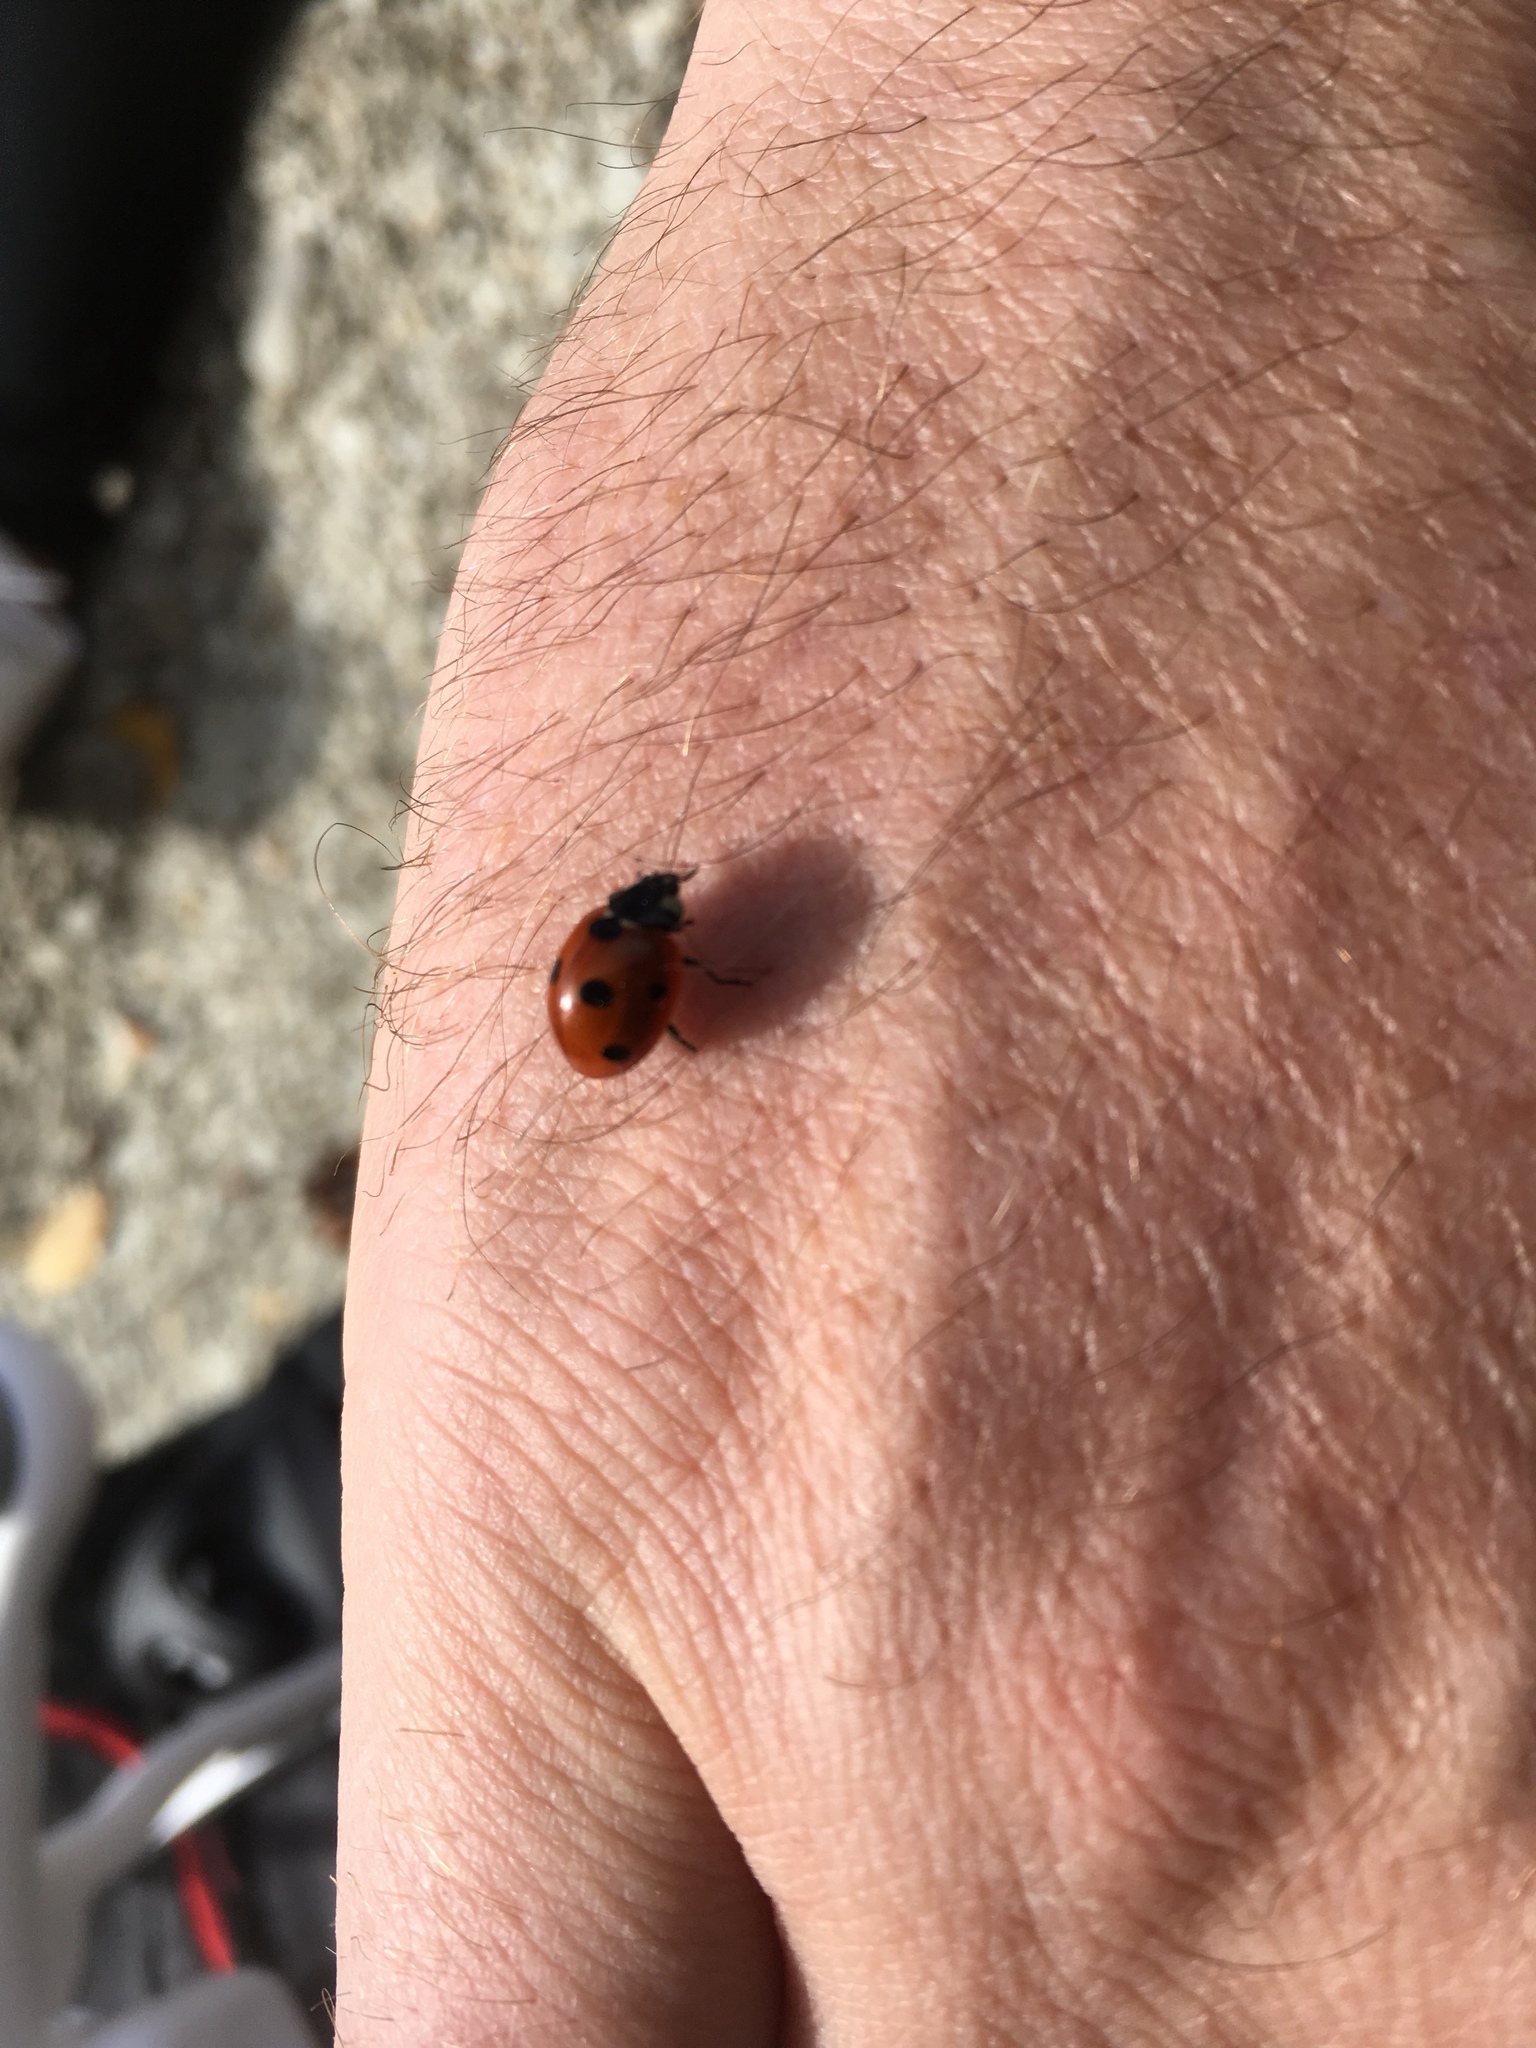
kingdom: Animalia
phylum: Arthropoda
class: Insecta
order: Coleoptera
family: Coccinellidae
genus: Coccinella
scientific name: Coccinella septempunctata
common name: Sevenspotted lady beetle
